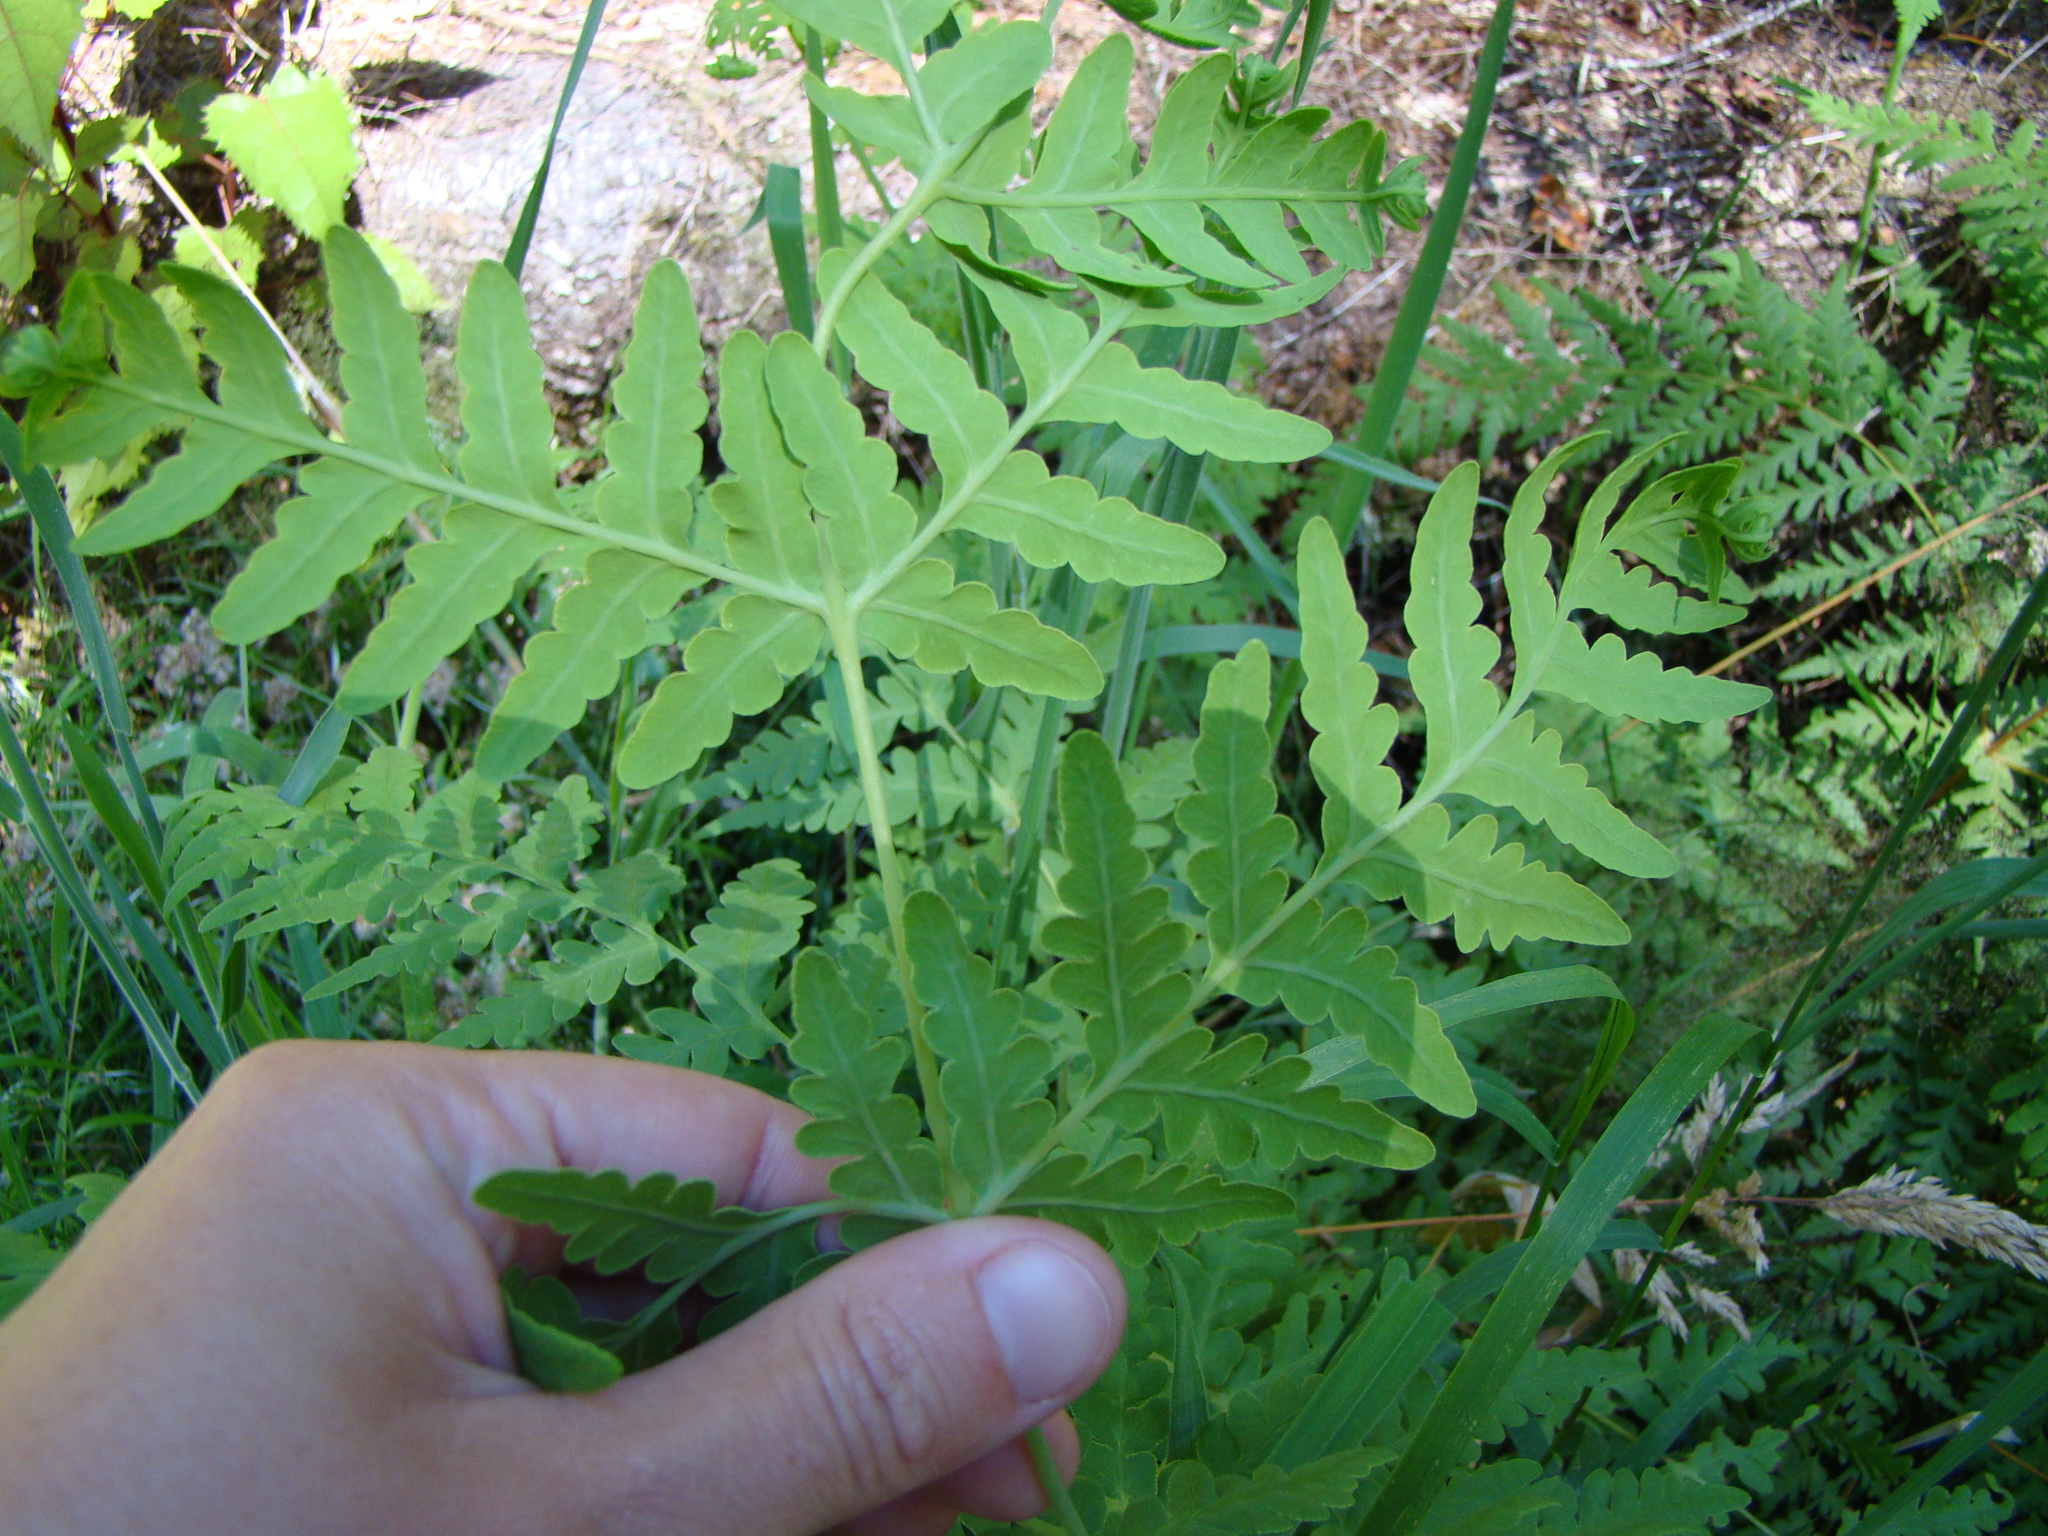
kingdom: Plantae
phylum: Tracheophyta
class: Polypodiopsida
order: Polypodiales
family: Dennstaedtiaceae
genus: Histiopteris
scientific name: Histiopteris incisa
